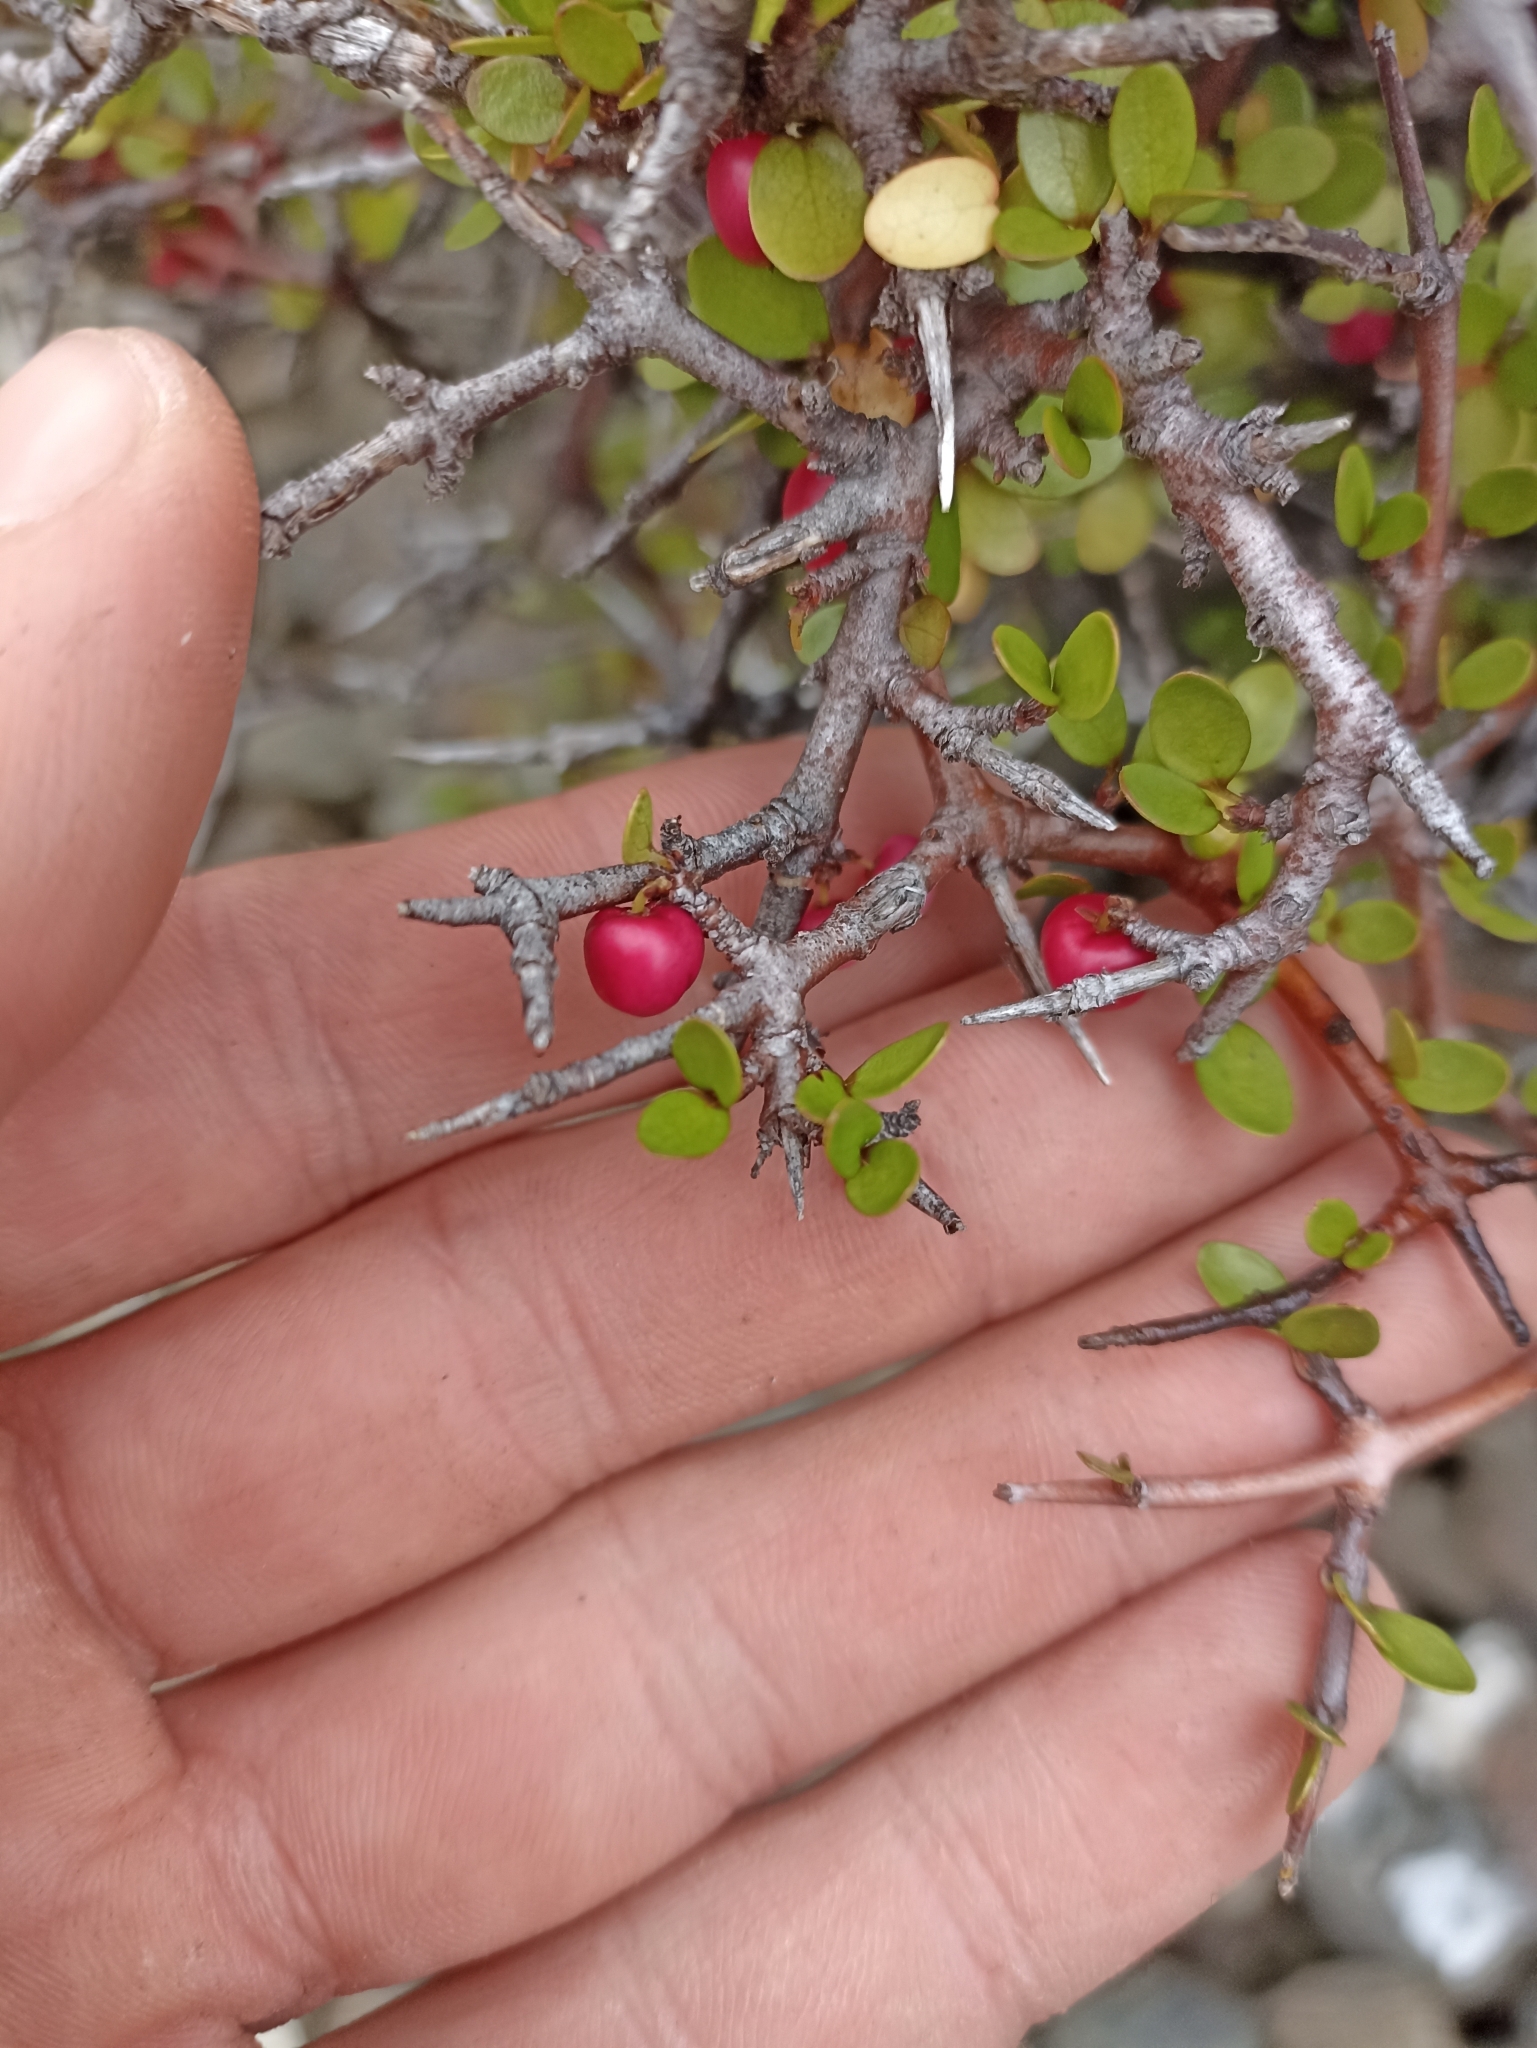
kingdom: Plantae
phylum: Tracheophyta
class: Magnoliopsida
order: Oxalidales
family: Elaeocarpaceae
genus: Aristotelia
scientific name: Aristotelia fruticosa
